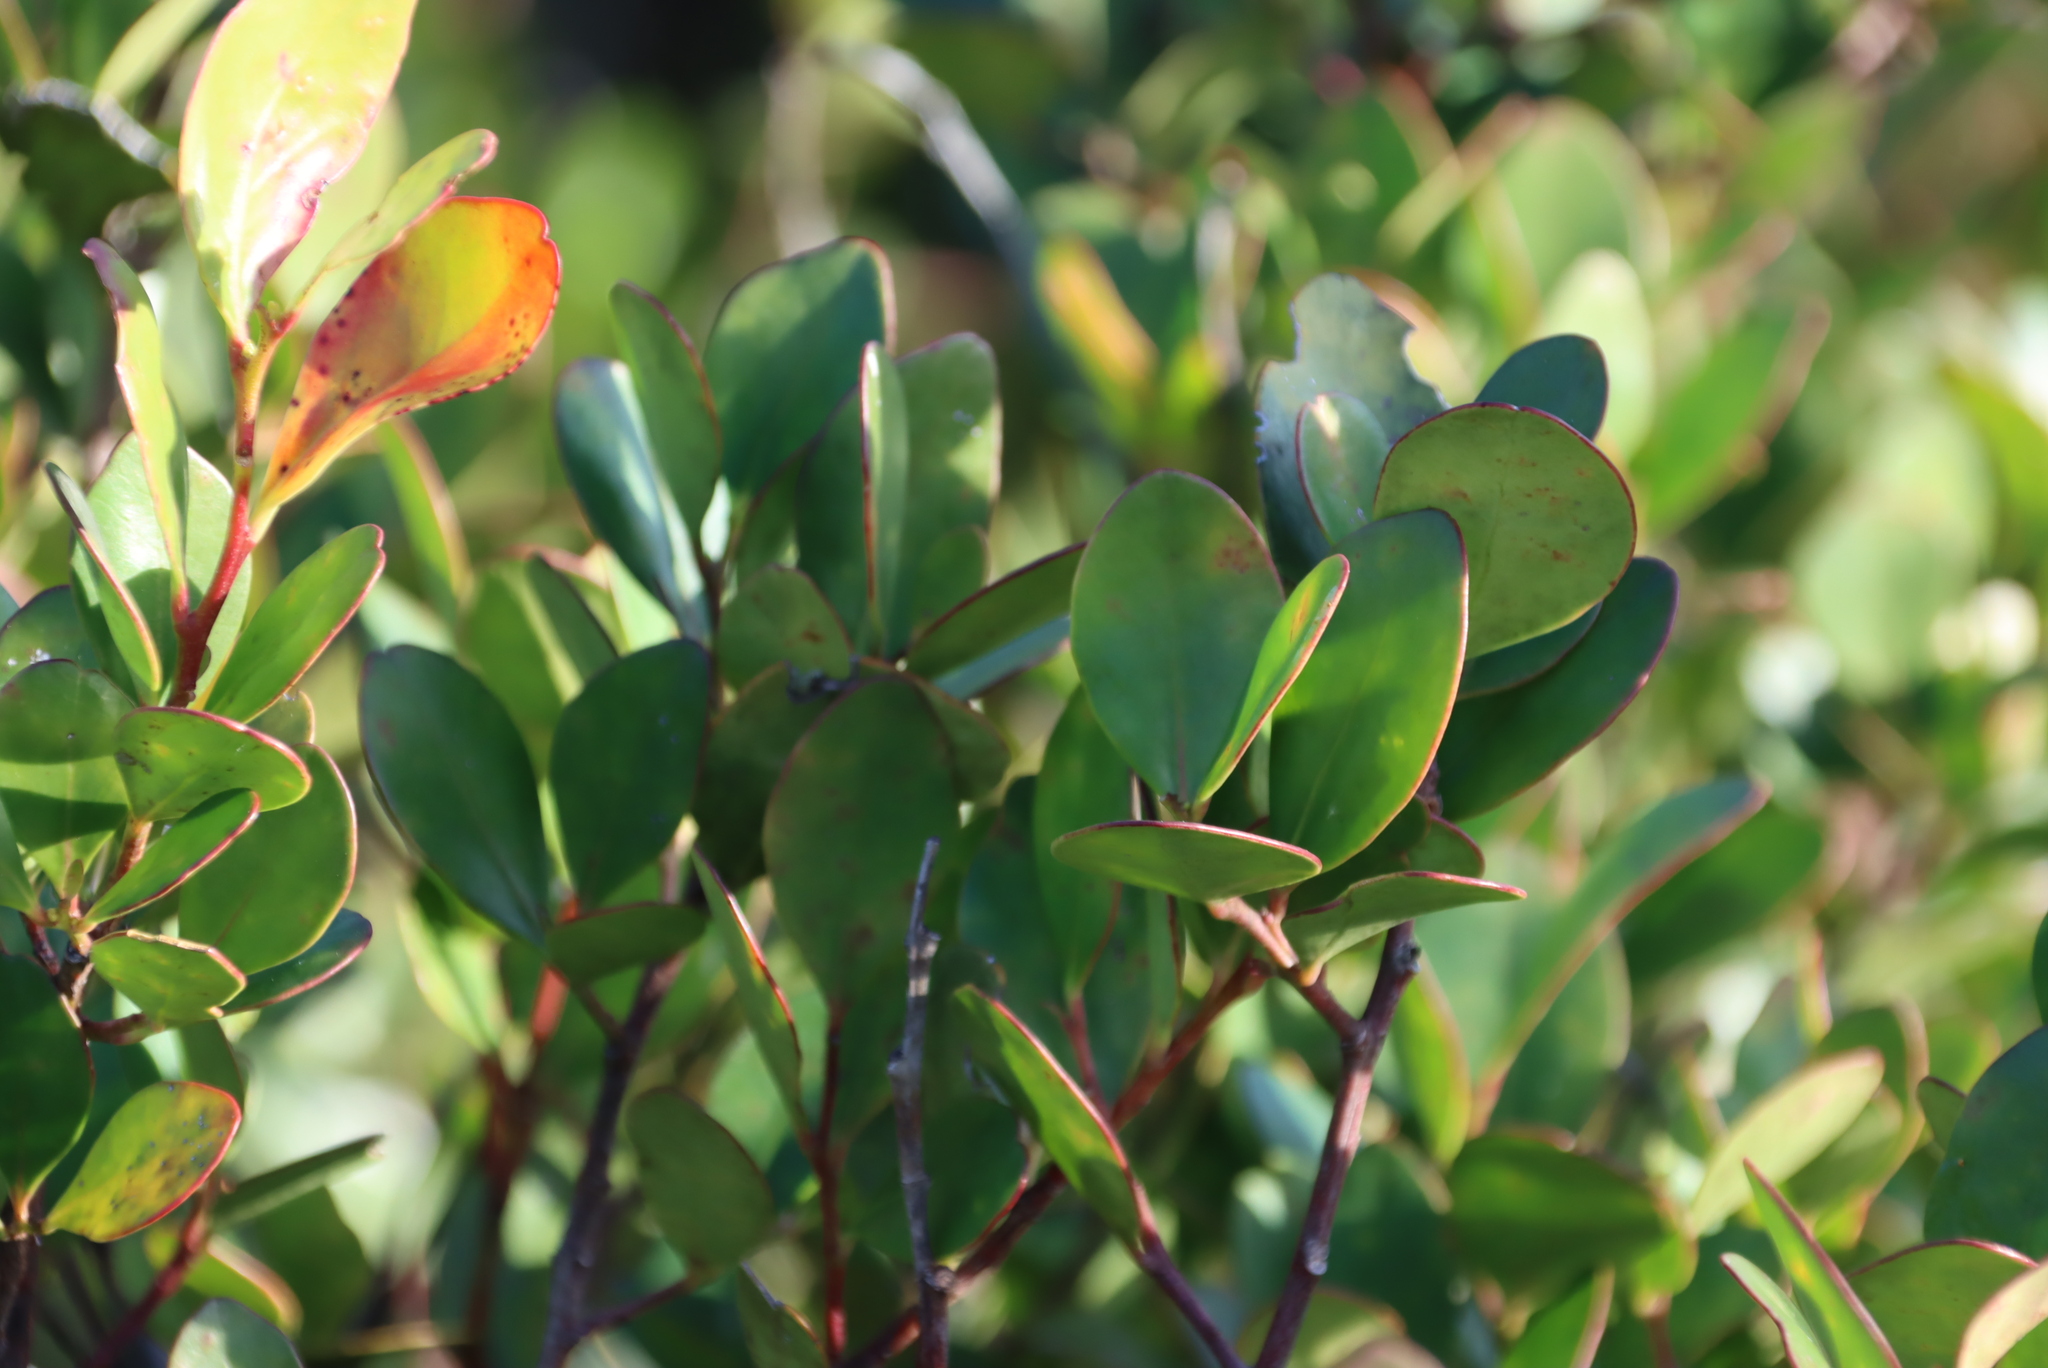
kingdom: Plantae
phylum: Tracheophyta
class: Magnoliopsida
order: Celastrales
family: Celastraceae
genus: Pterocelastrus
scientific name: Pterocelastrus tricuspidatus
